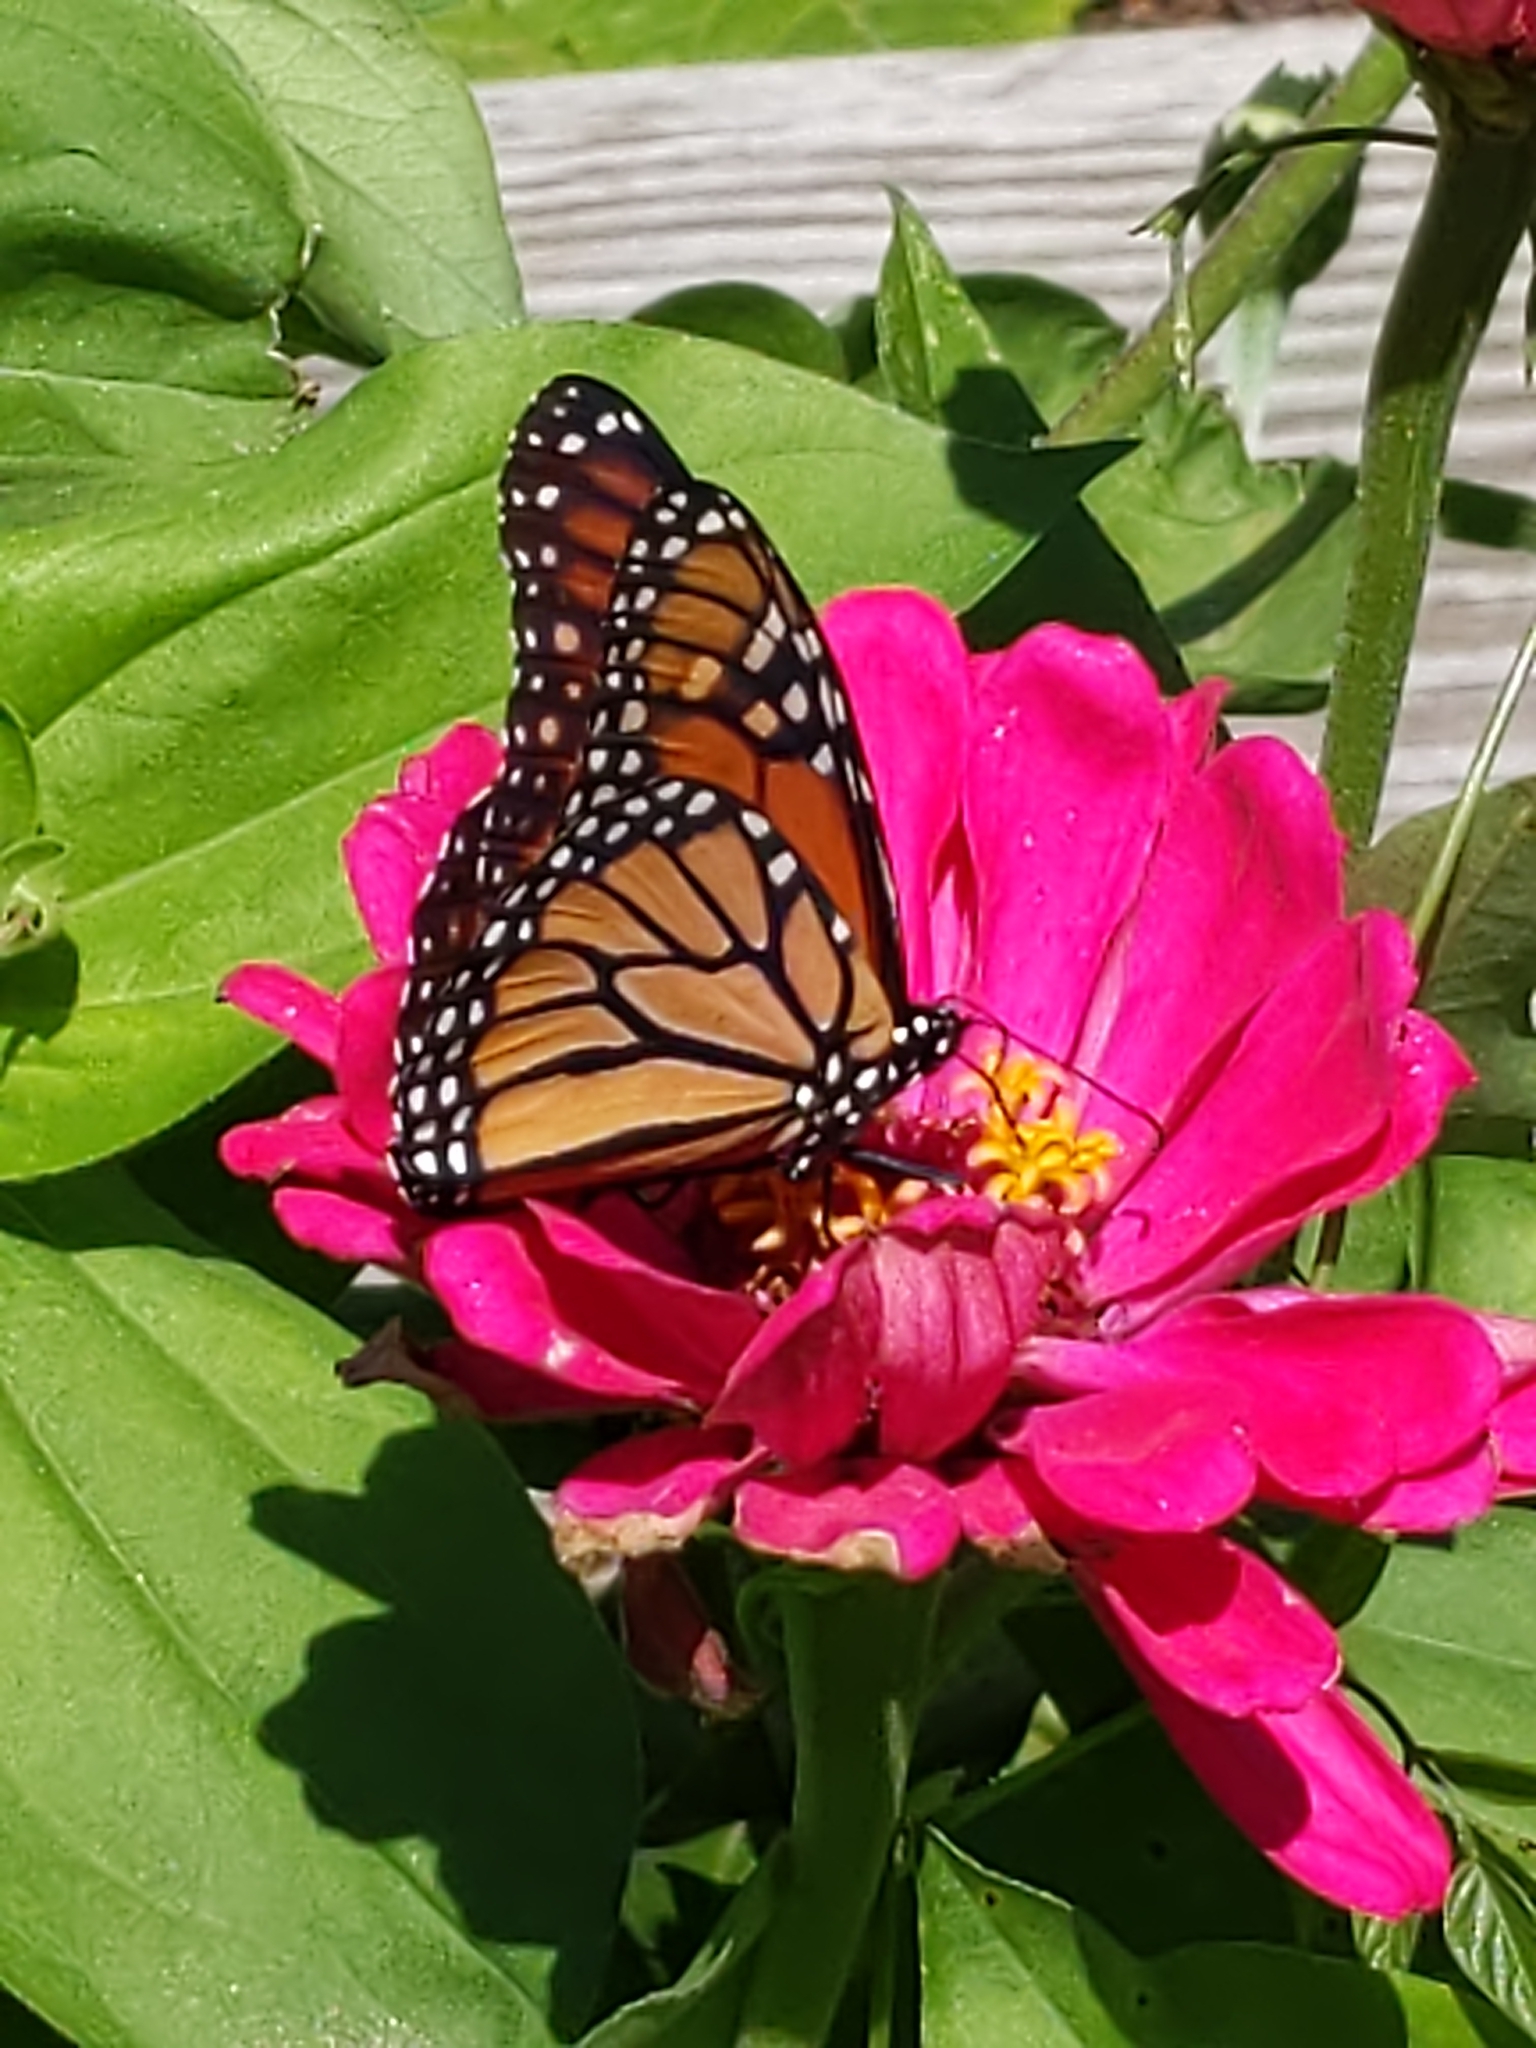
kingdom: Animalia
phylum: Arthropoda
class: Insecta
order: Lepidoptera
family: Nymphalidae
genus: Danaus
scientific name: Danaus plexippus
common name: Monarch
